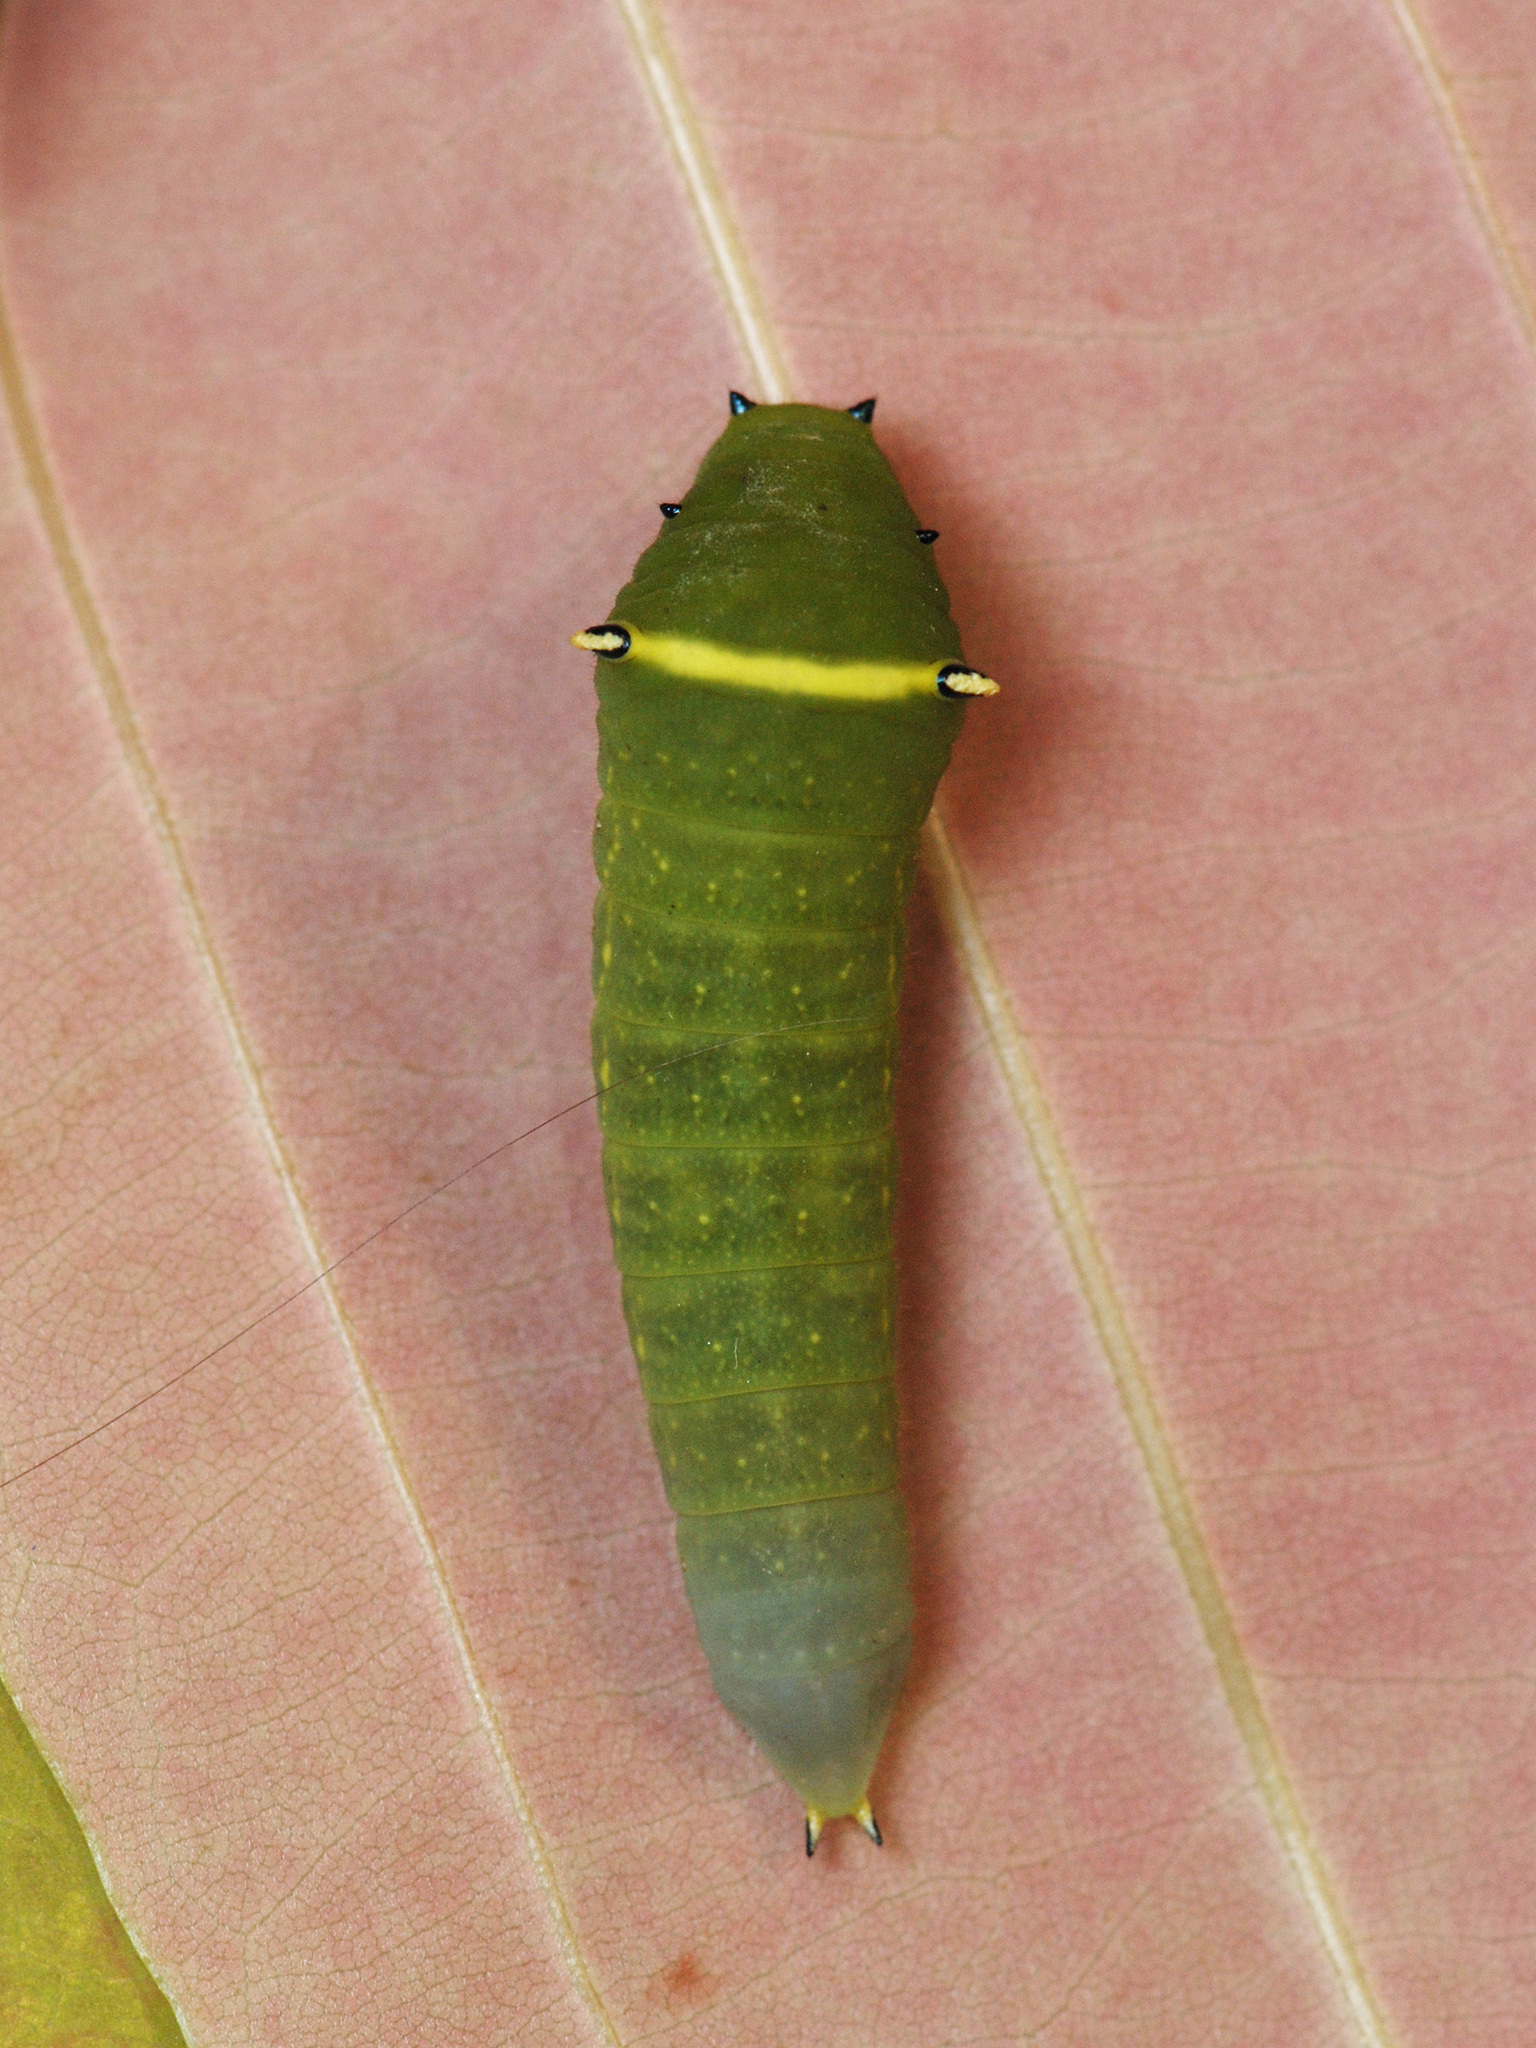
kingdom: Fungi
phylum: Ascomycota
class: Sordariomycetes
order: Microascales
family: Microascaceae
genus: Graphium
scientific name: Graphium sarpedon
